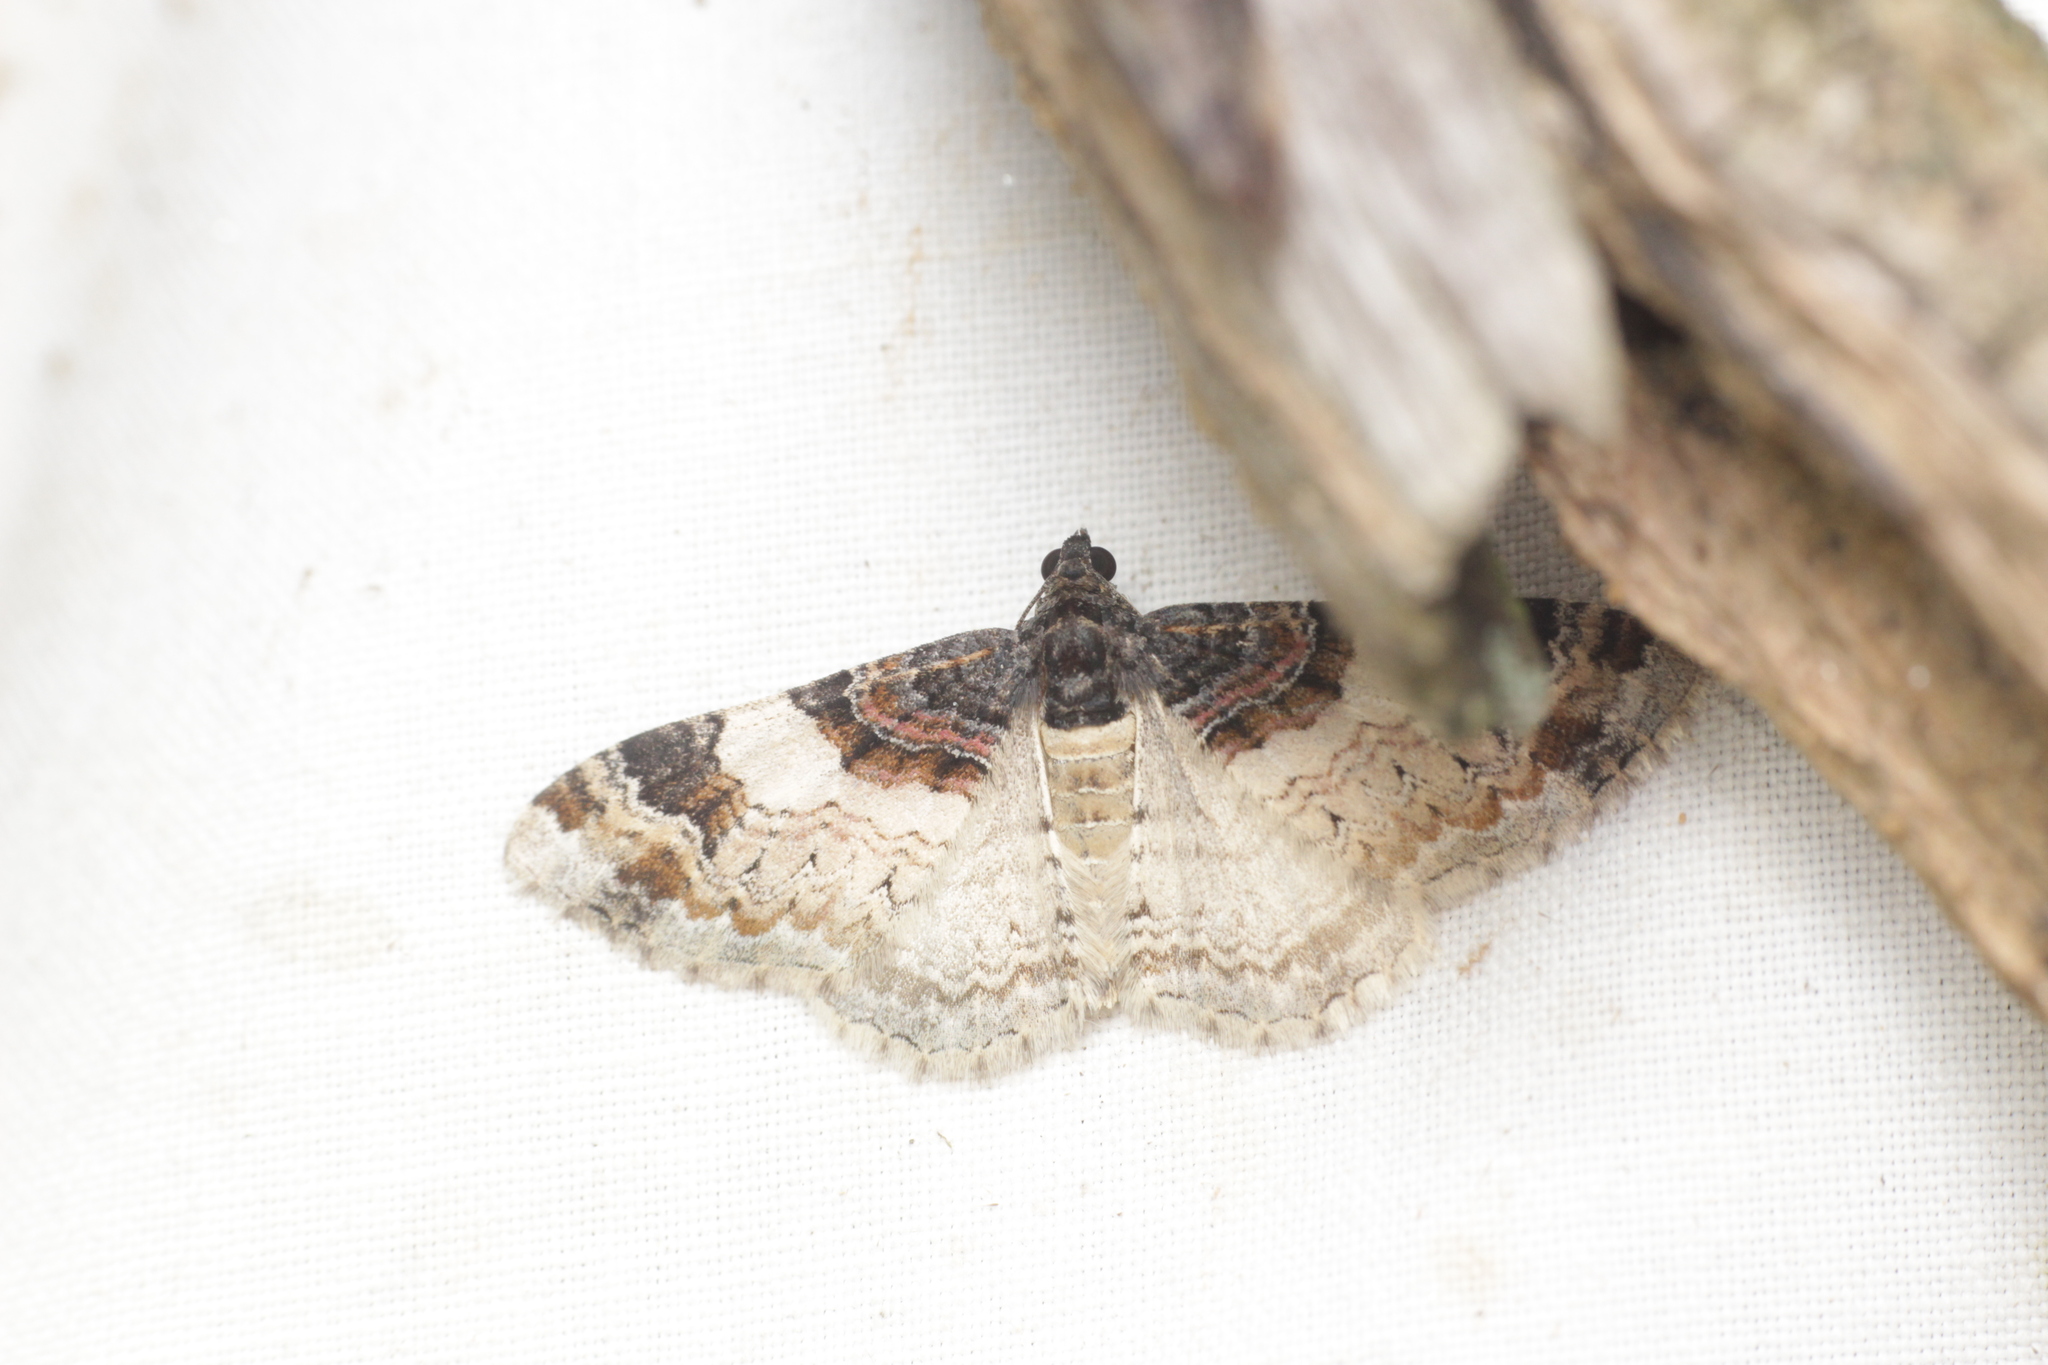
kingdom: Animalia
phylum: Arthropoda
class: Insecta
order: Lepidoptera
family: Geometridae
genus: Catarhoe
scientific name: Catarhoe cuculata
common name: Royal mantle
